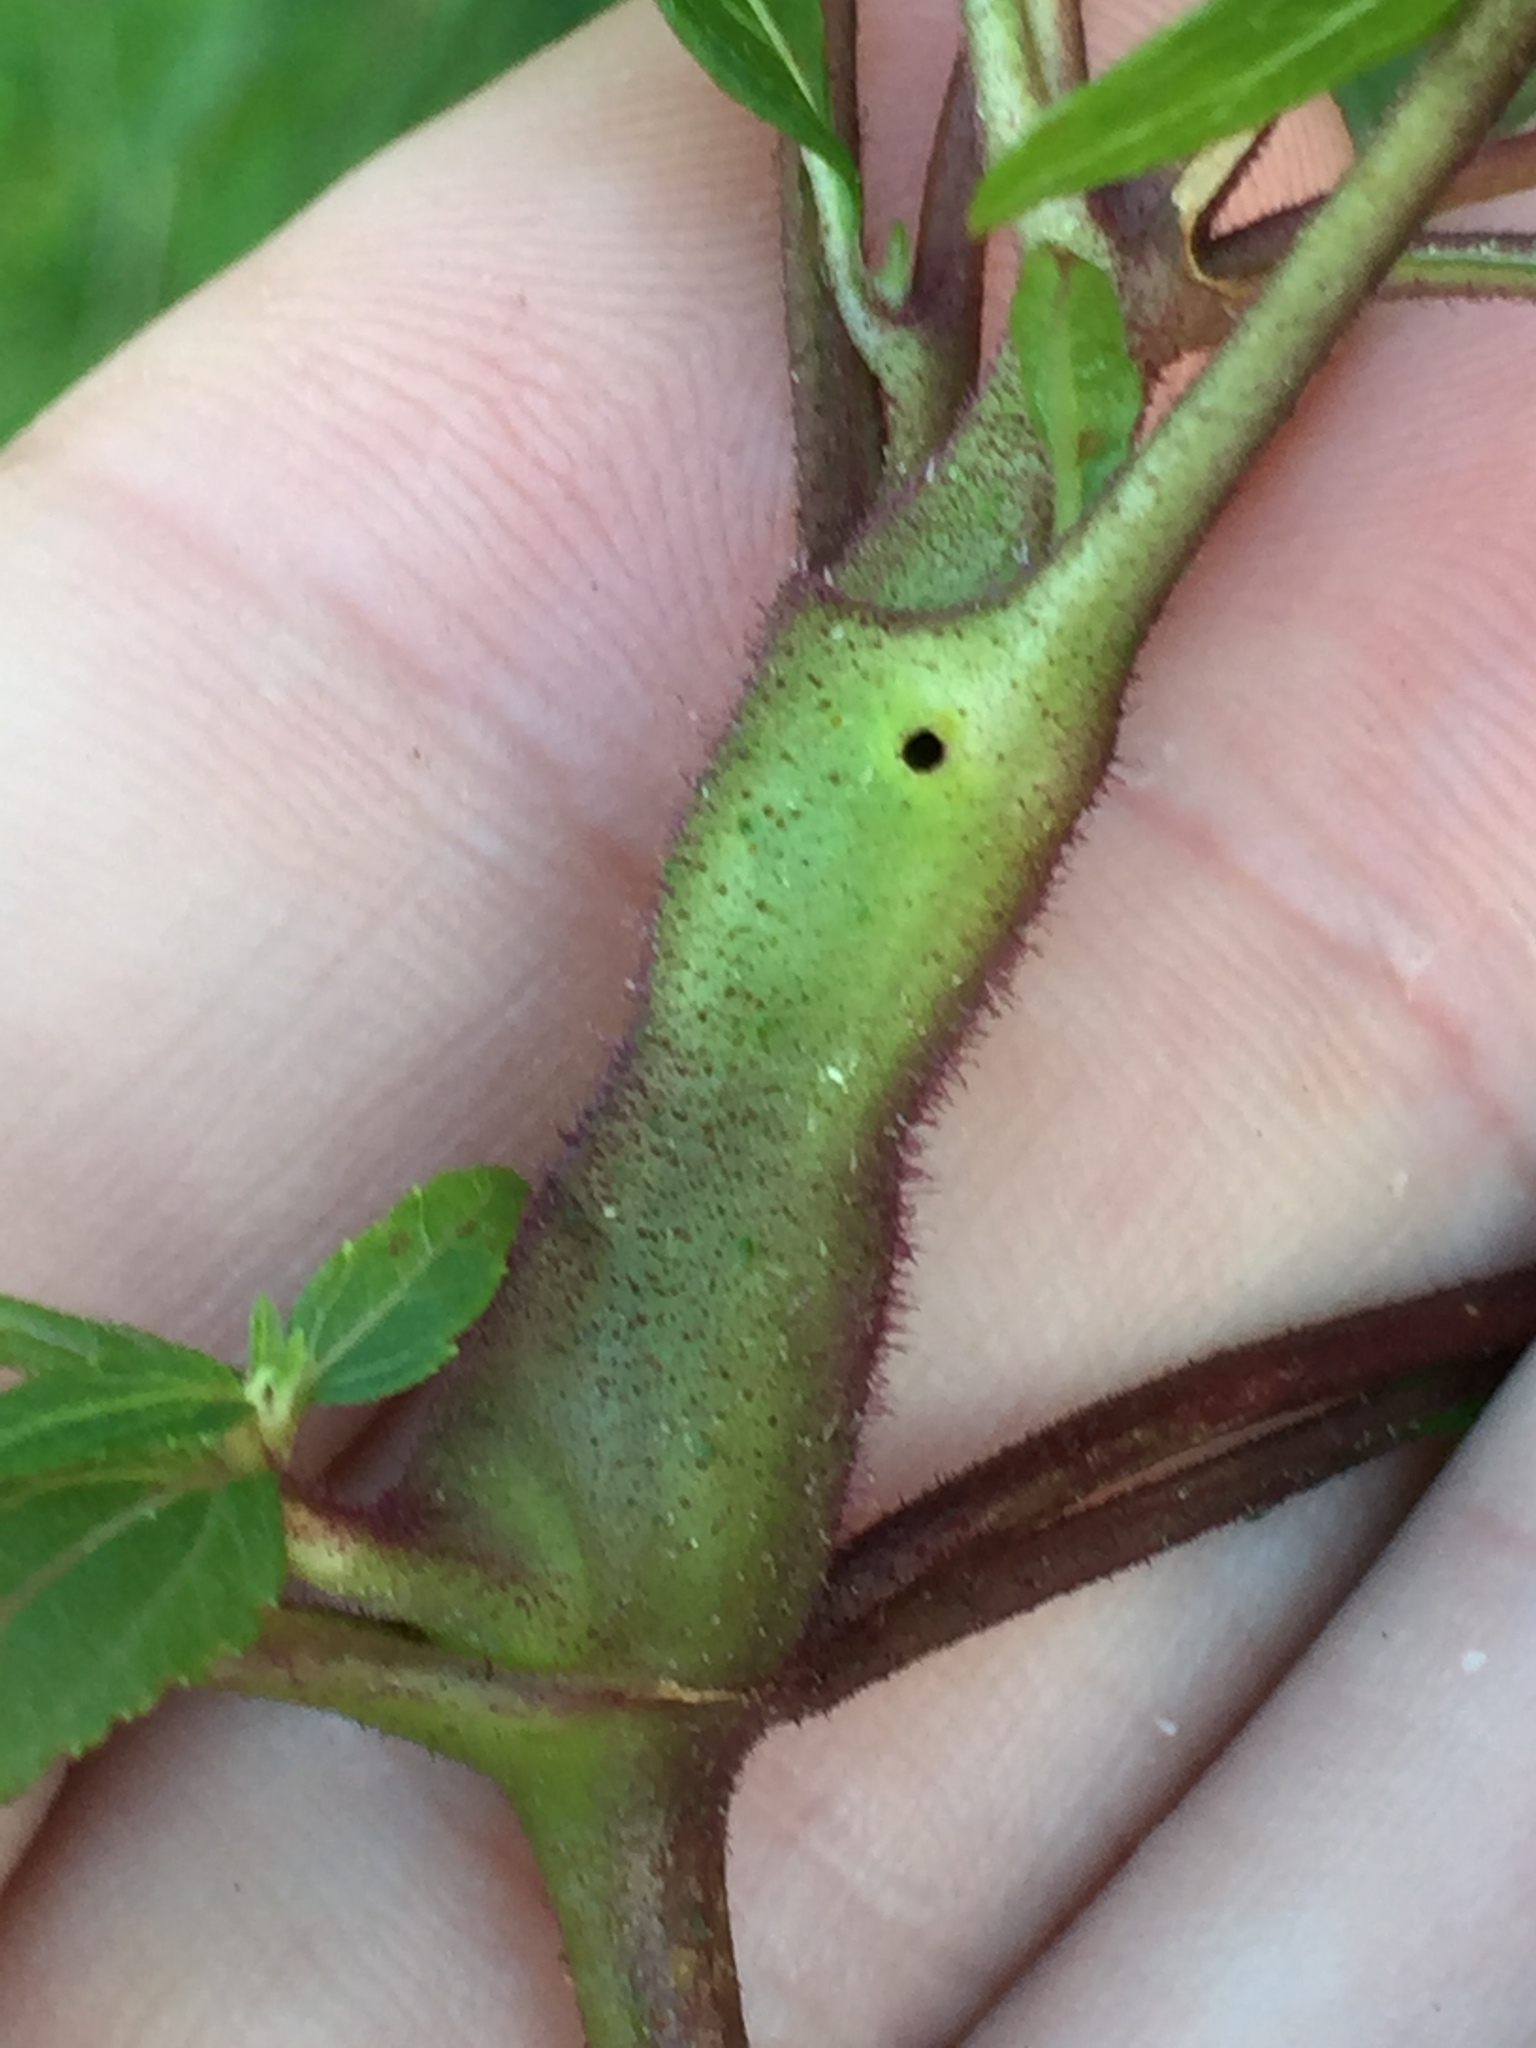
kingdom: Animalia
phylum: Arthropoda
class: Insecta
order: Diptera
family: Tephritidae
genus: Procecidochares
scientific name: Procecidochares alani
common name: Fruit fly
